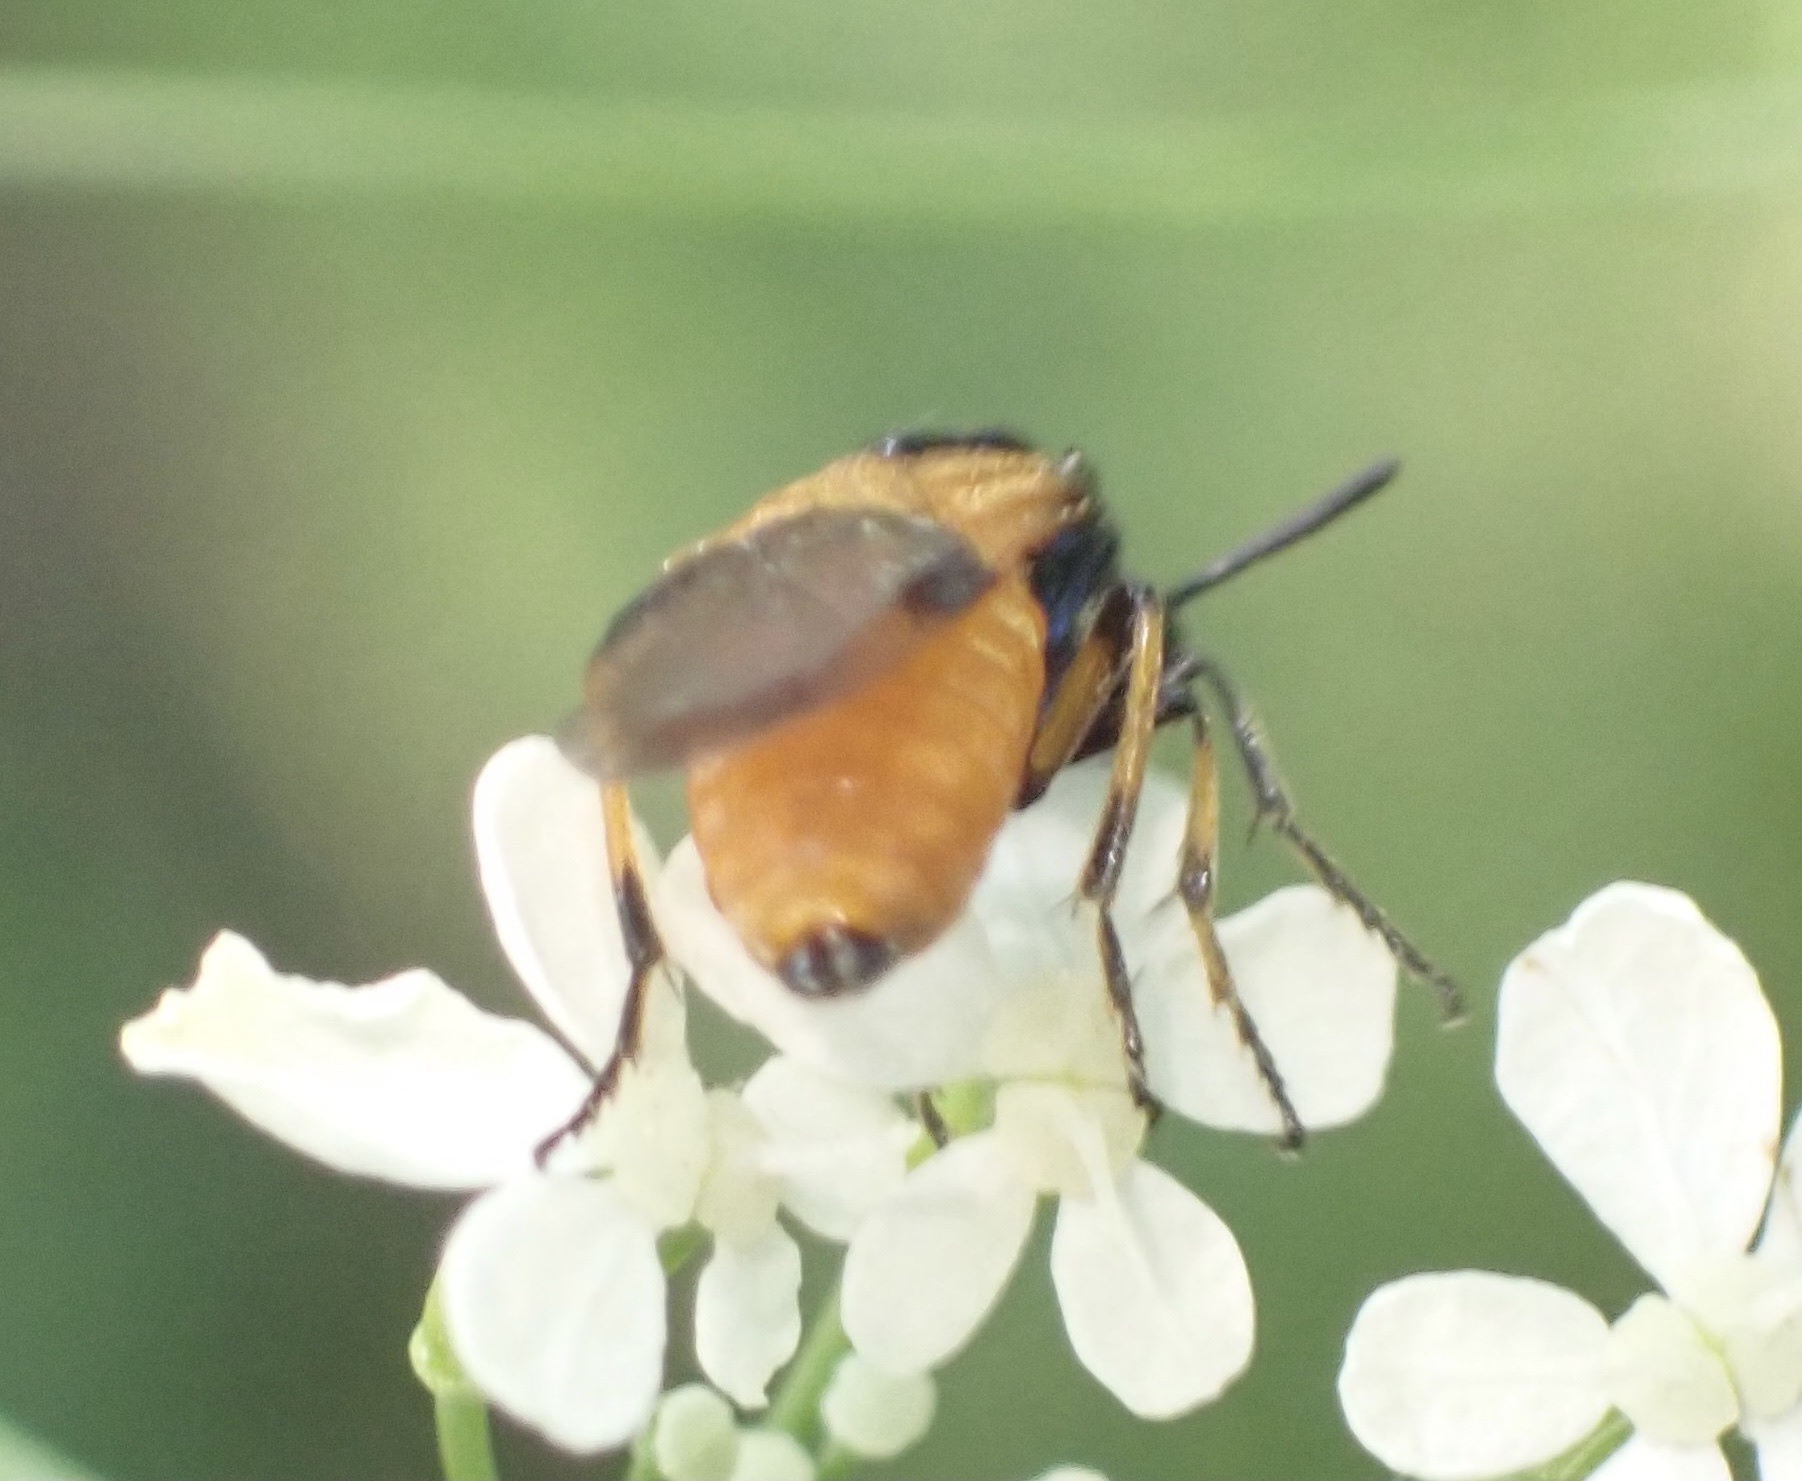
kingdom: Animalia
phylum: Arthropoda
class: Insecta
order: Hymenoptera
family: Argidae
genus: Arge
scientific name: Arge cyanocrocea
